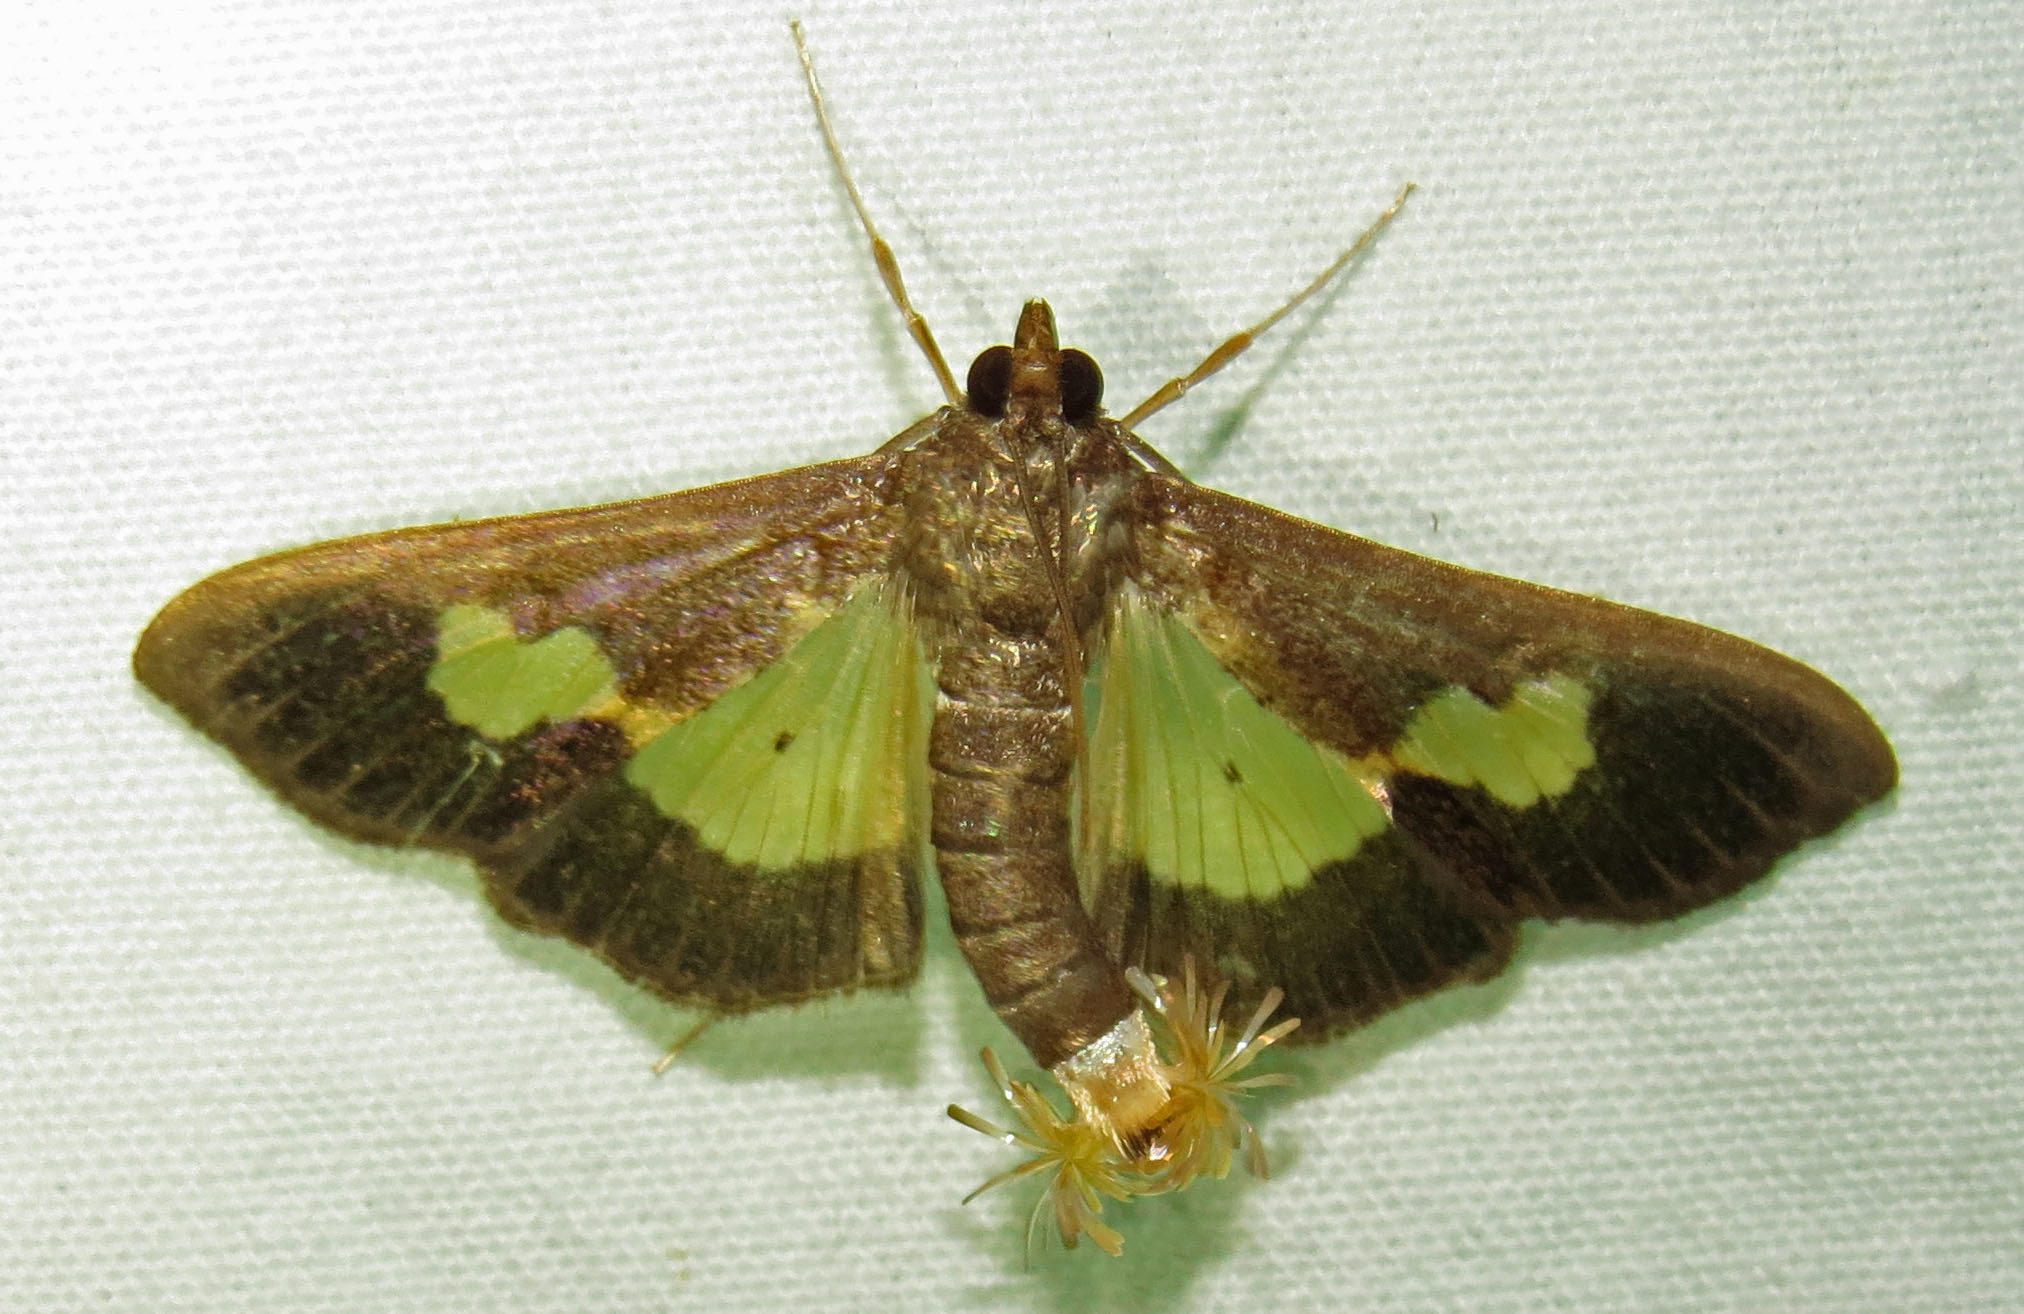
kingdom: Animalia
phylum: Arthropoda
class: Insecta
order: Lepidoptera
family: Crambidae
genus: Cryptographis
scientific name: Cryptographis nitidalis
